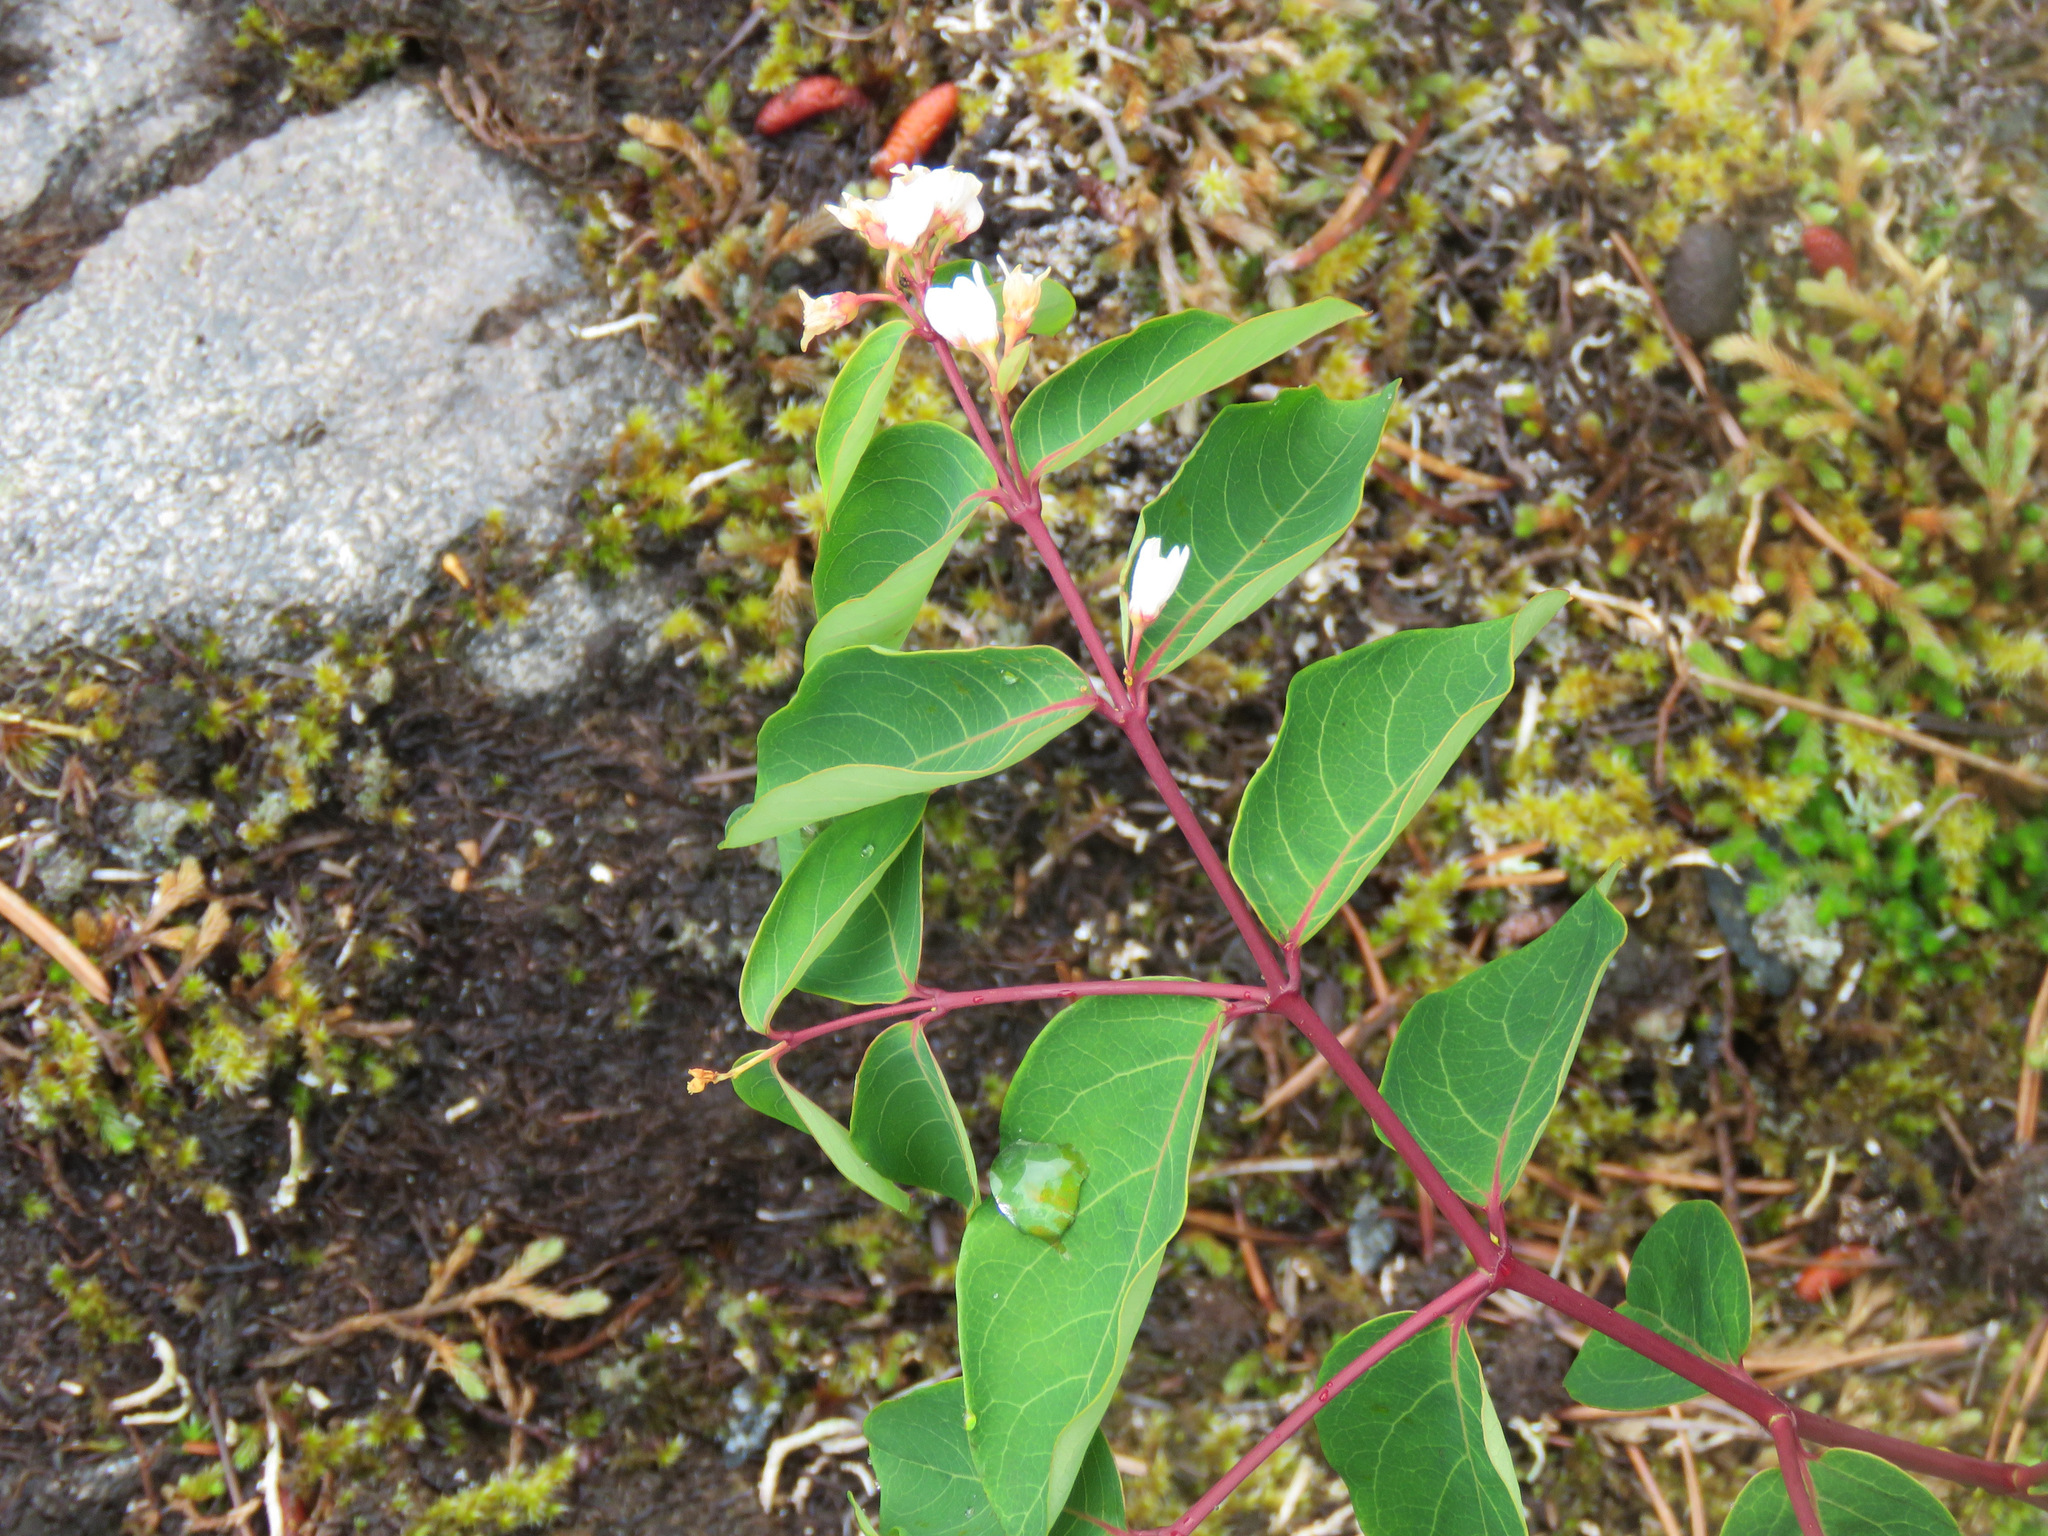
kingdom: Plantae
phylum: Tracheophyta
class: Magnoliopsida
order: Gentianales
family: Apocynaceae
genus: Apocynum
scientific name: Apocynum androsaemifolium
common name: Spreading dogbane
